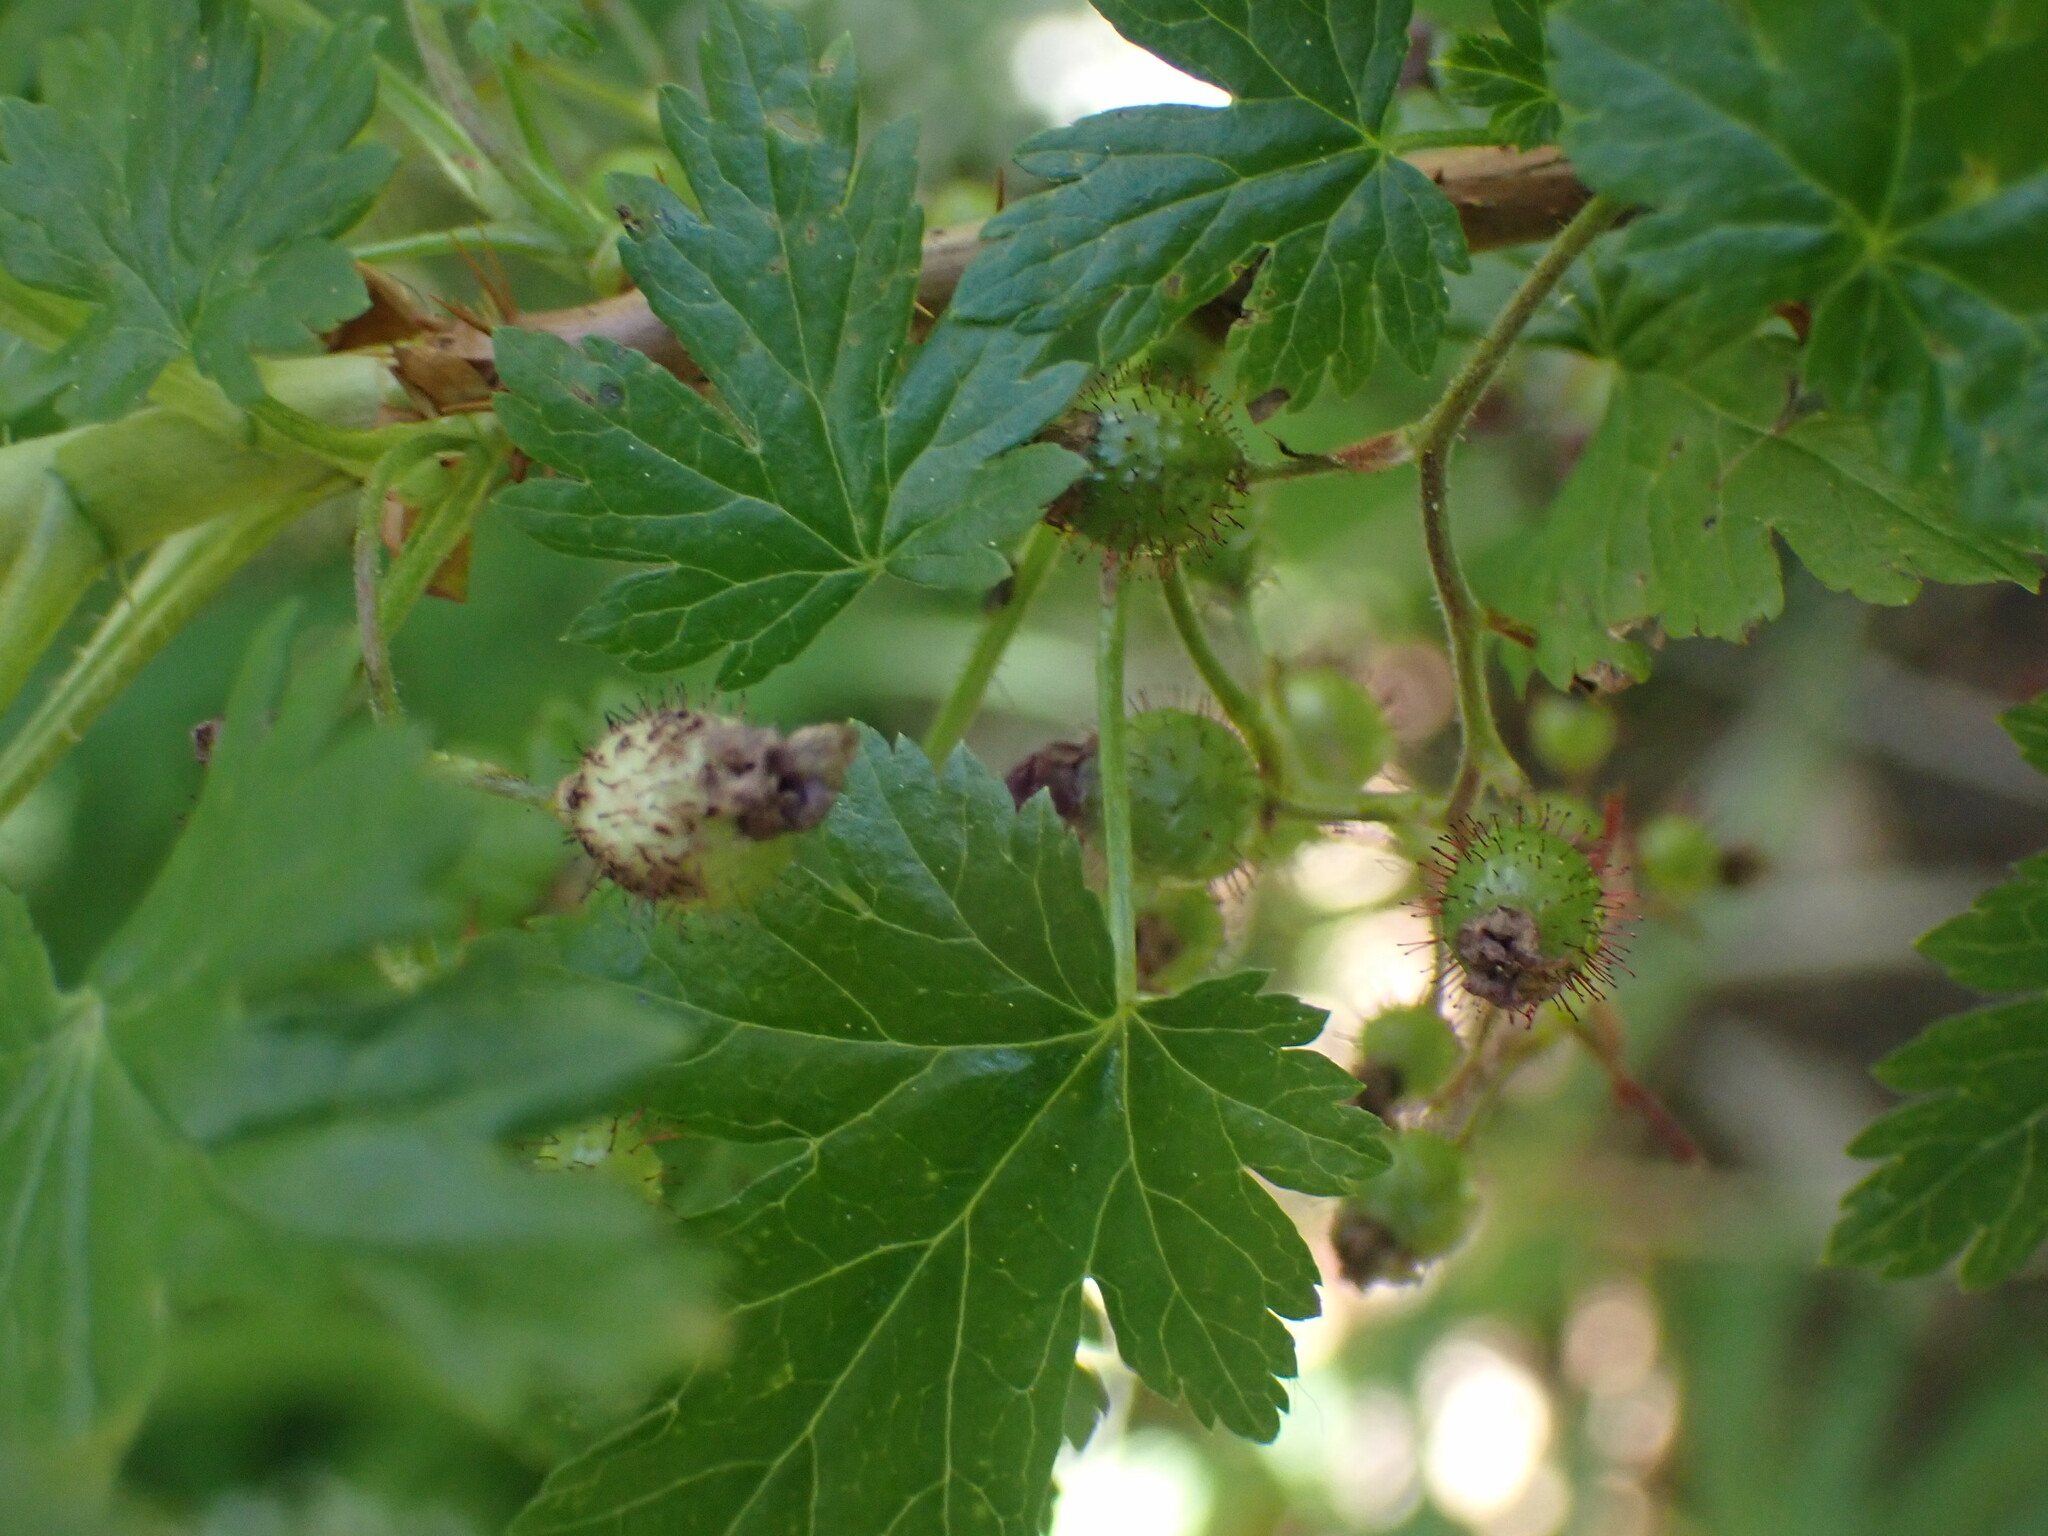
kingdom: Plantae
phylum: Tracheophyta
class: Magnoliopsida
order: Saxifragales
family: Grossulariaceae
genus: Ribes
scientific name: Ribes lacustre
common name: Black gooseberry
